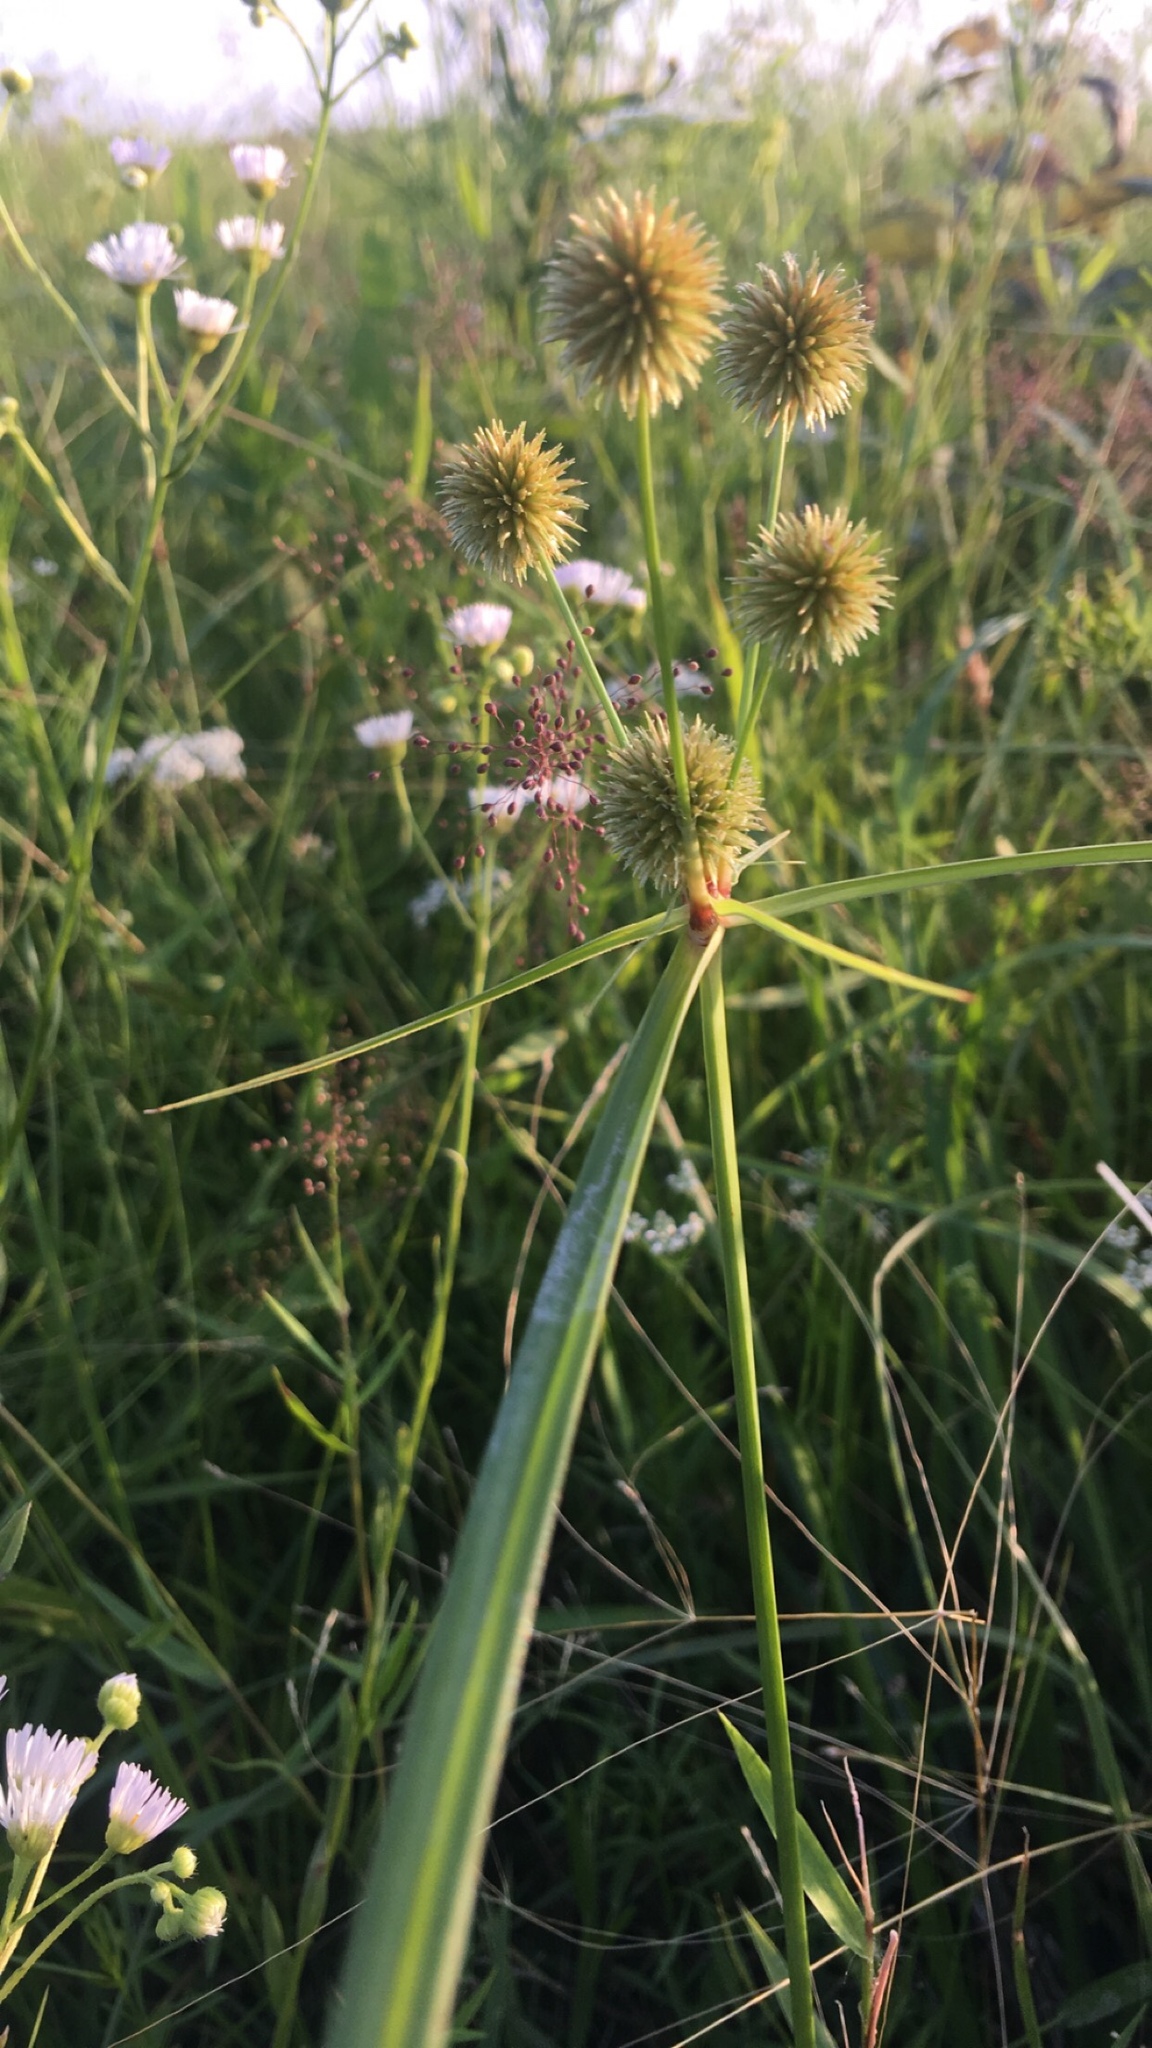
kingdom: Plantae
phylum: Tracheophyta
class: Liliopsida
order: Poales
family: Cyperaceae
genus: Cyperus
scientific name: Cyperus echinatus
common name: Teasel sedge
